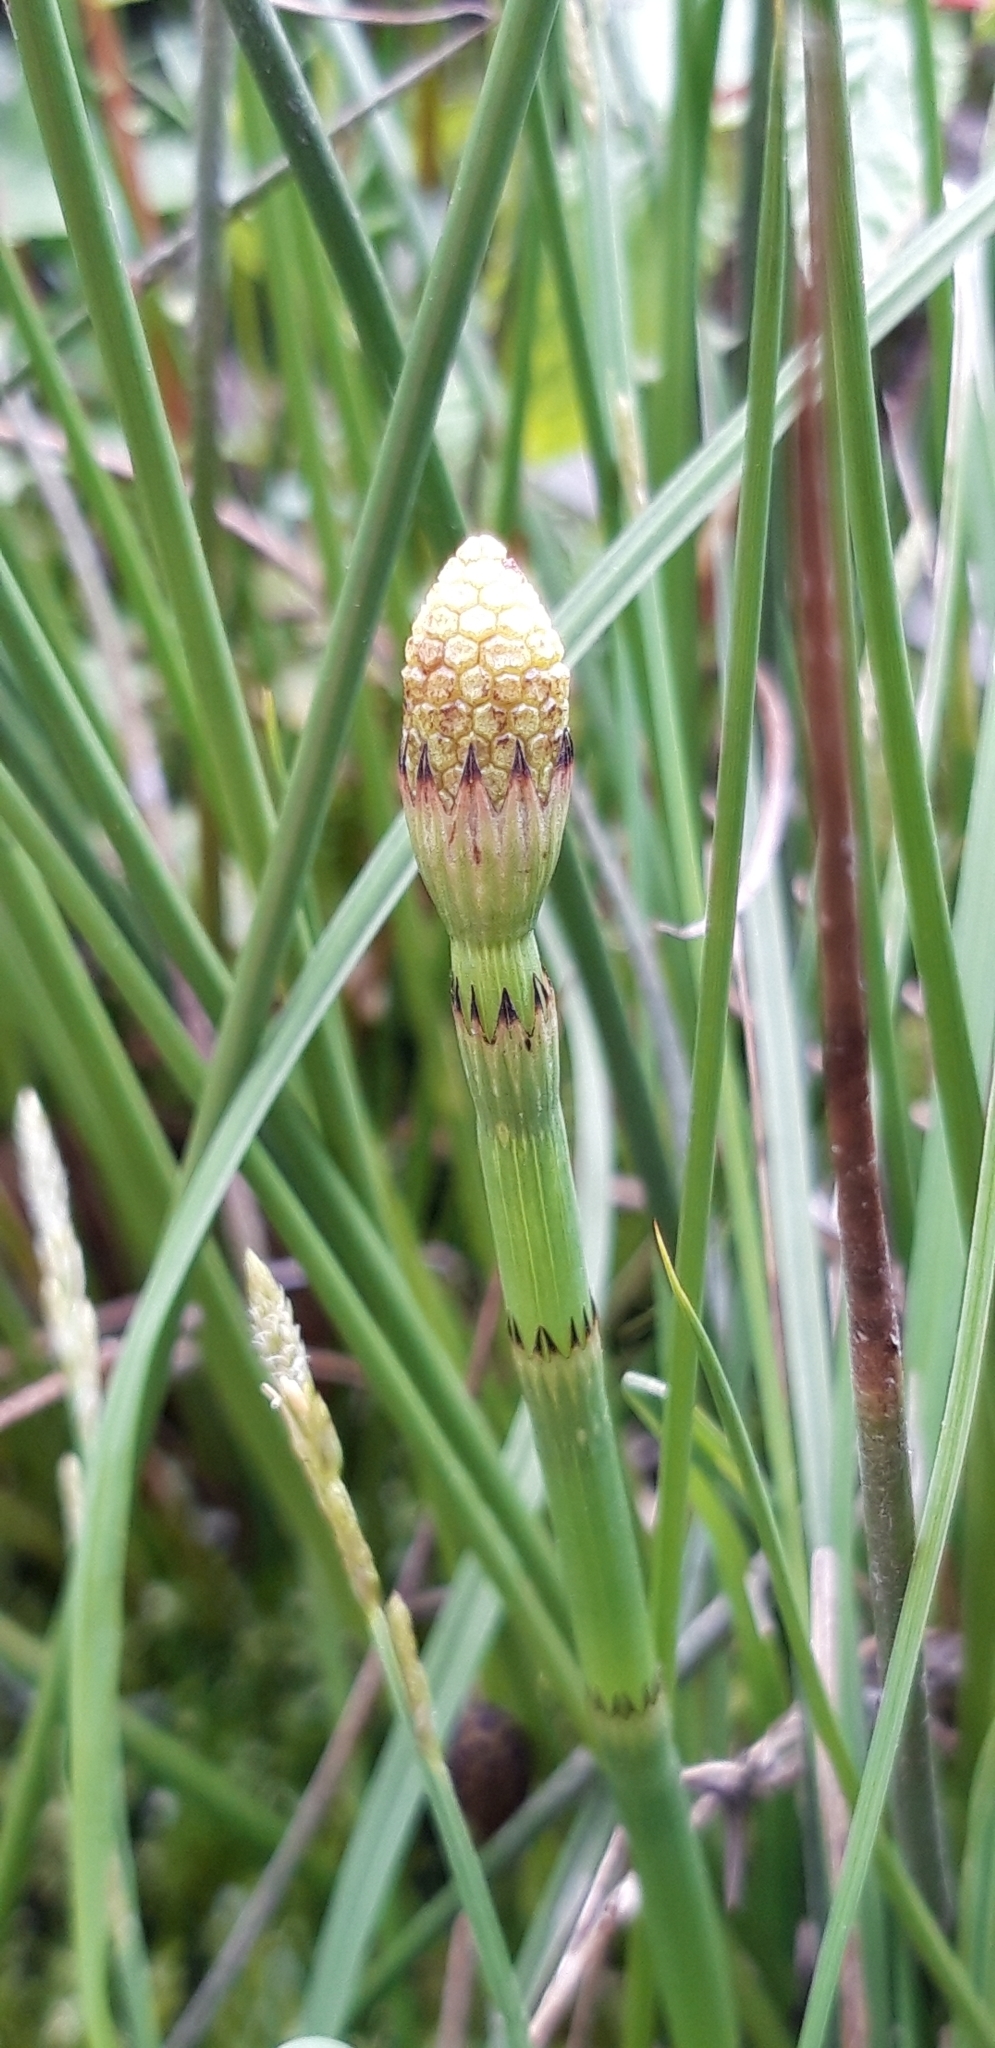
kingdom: Plantae
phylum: Tracheophyta
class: Polypodiopsida
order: Equisetales
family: Equisetaceae
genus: Equisetum
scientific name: Equisetum fluviatile
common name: Water horsetail
